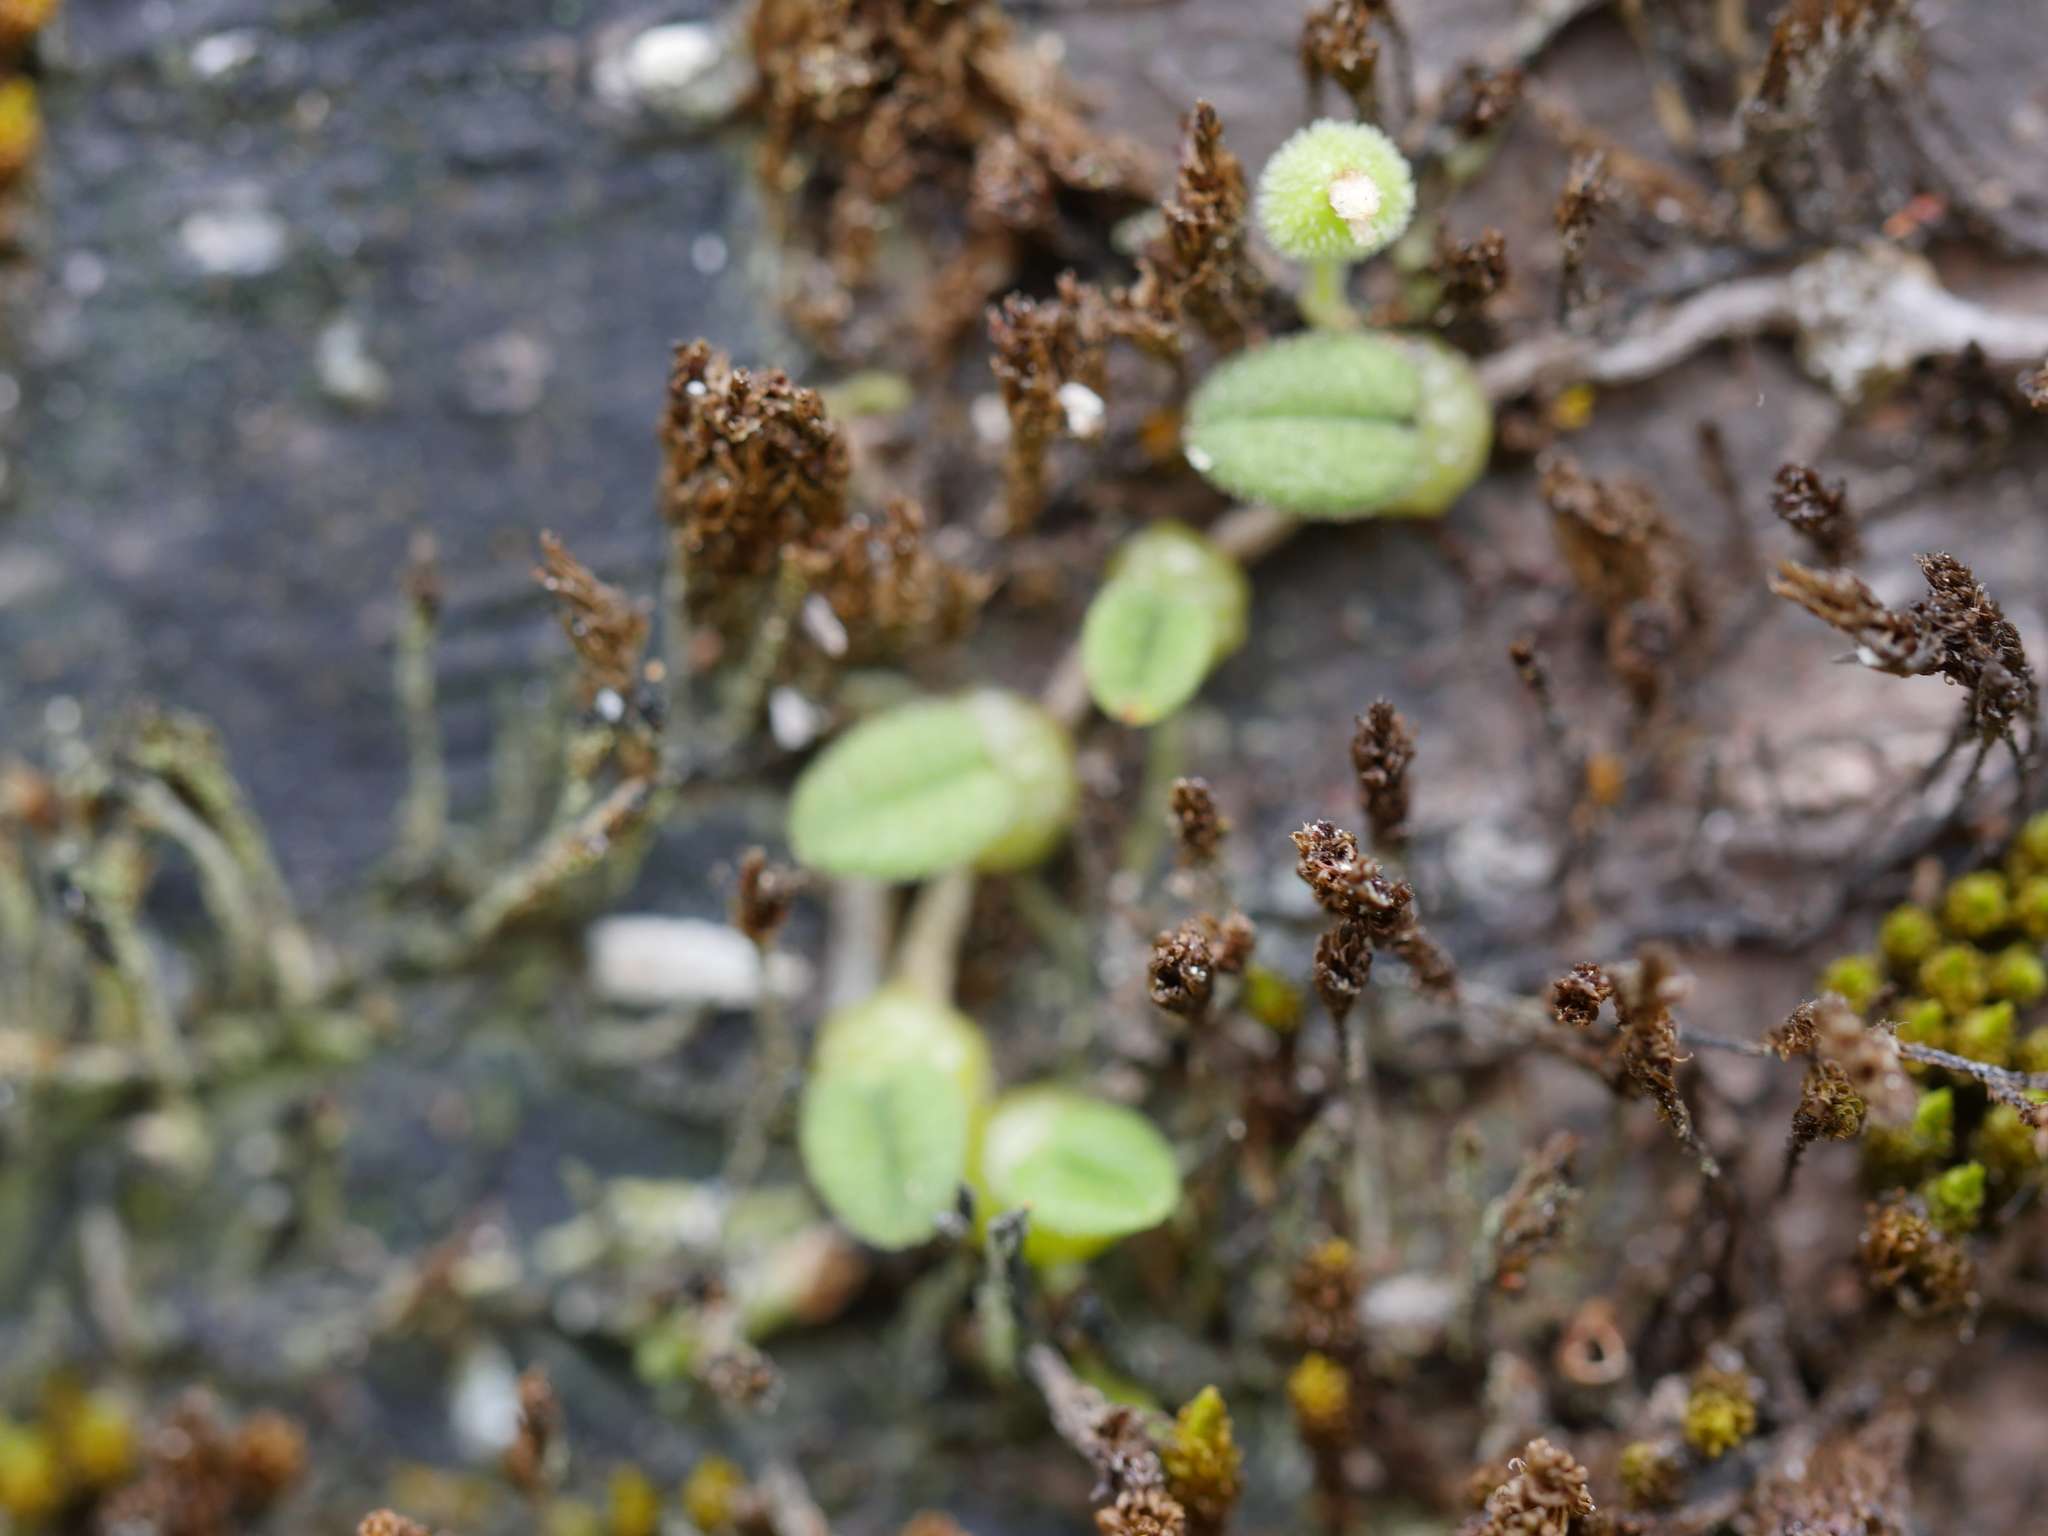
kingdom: Plantae
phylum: Tracheophyta
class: Liliopsida
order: Asparagales
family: Orchidaceae
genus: Bulbophyllum
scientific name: Bulbophyllum pygmaeum
